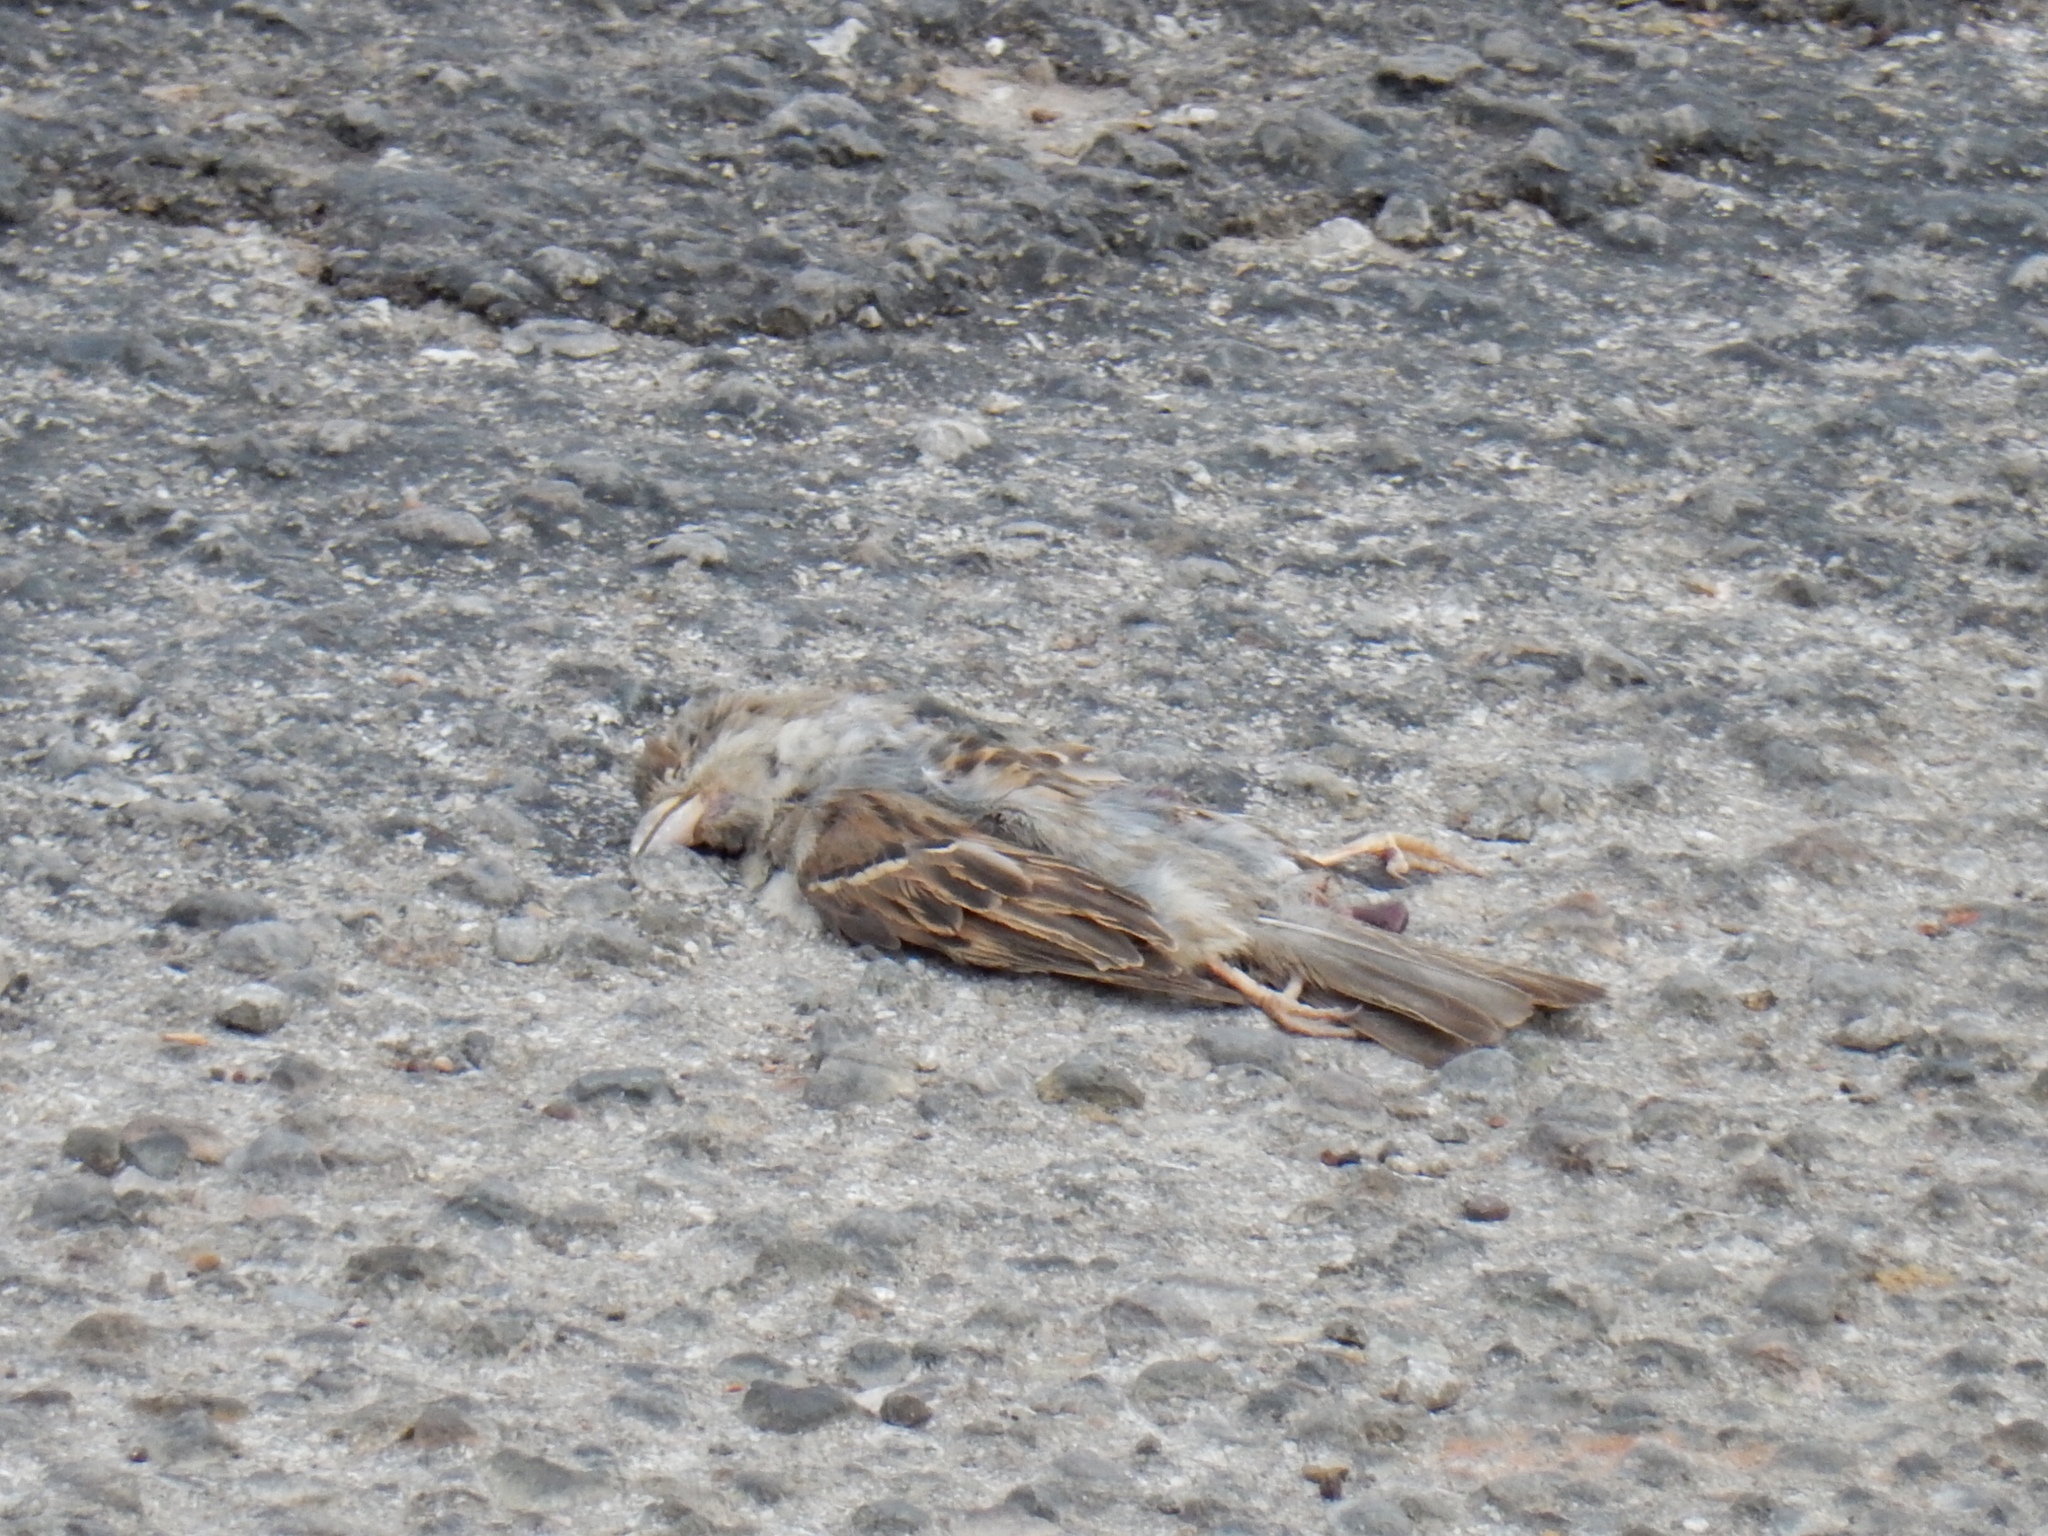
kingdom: Animalia
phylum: Chordata
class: Aves
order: Passeriformes
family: Passeridae
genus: Passer
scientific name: Passer domesticus
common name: House sparrow
